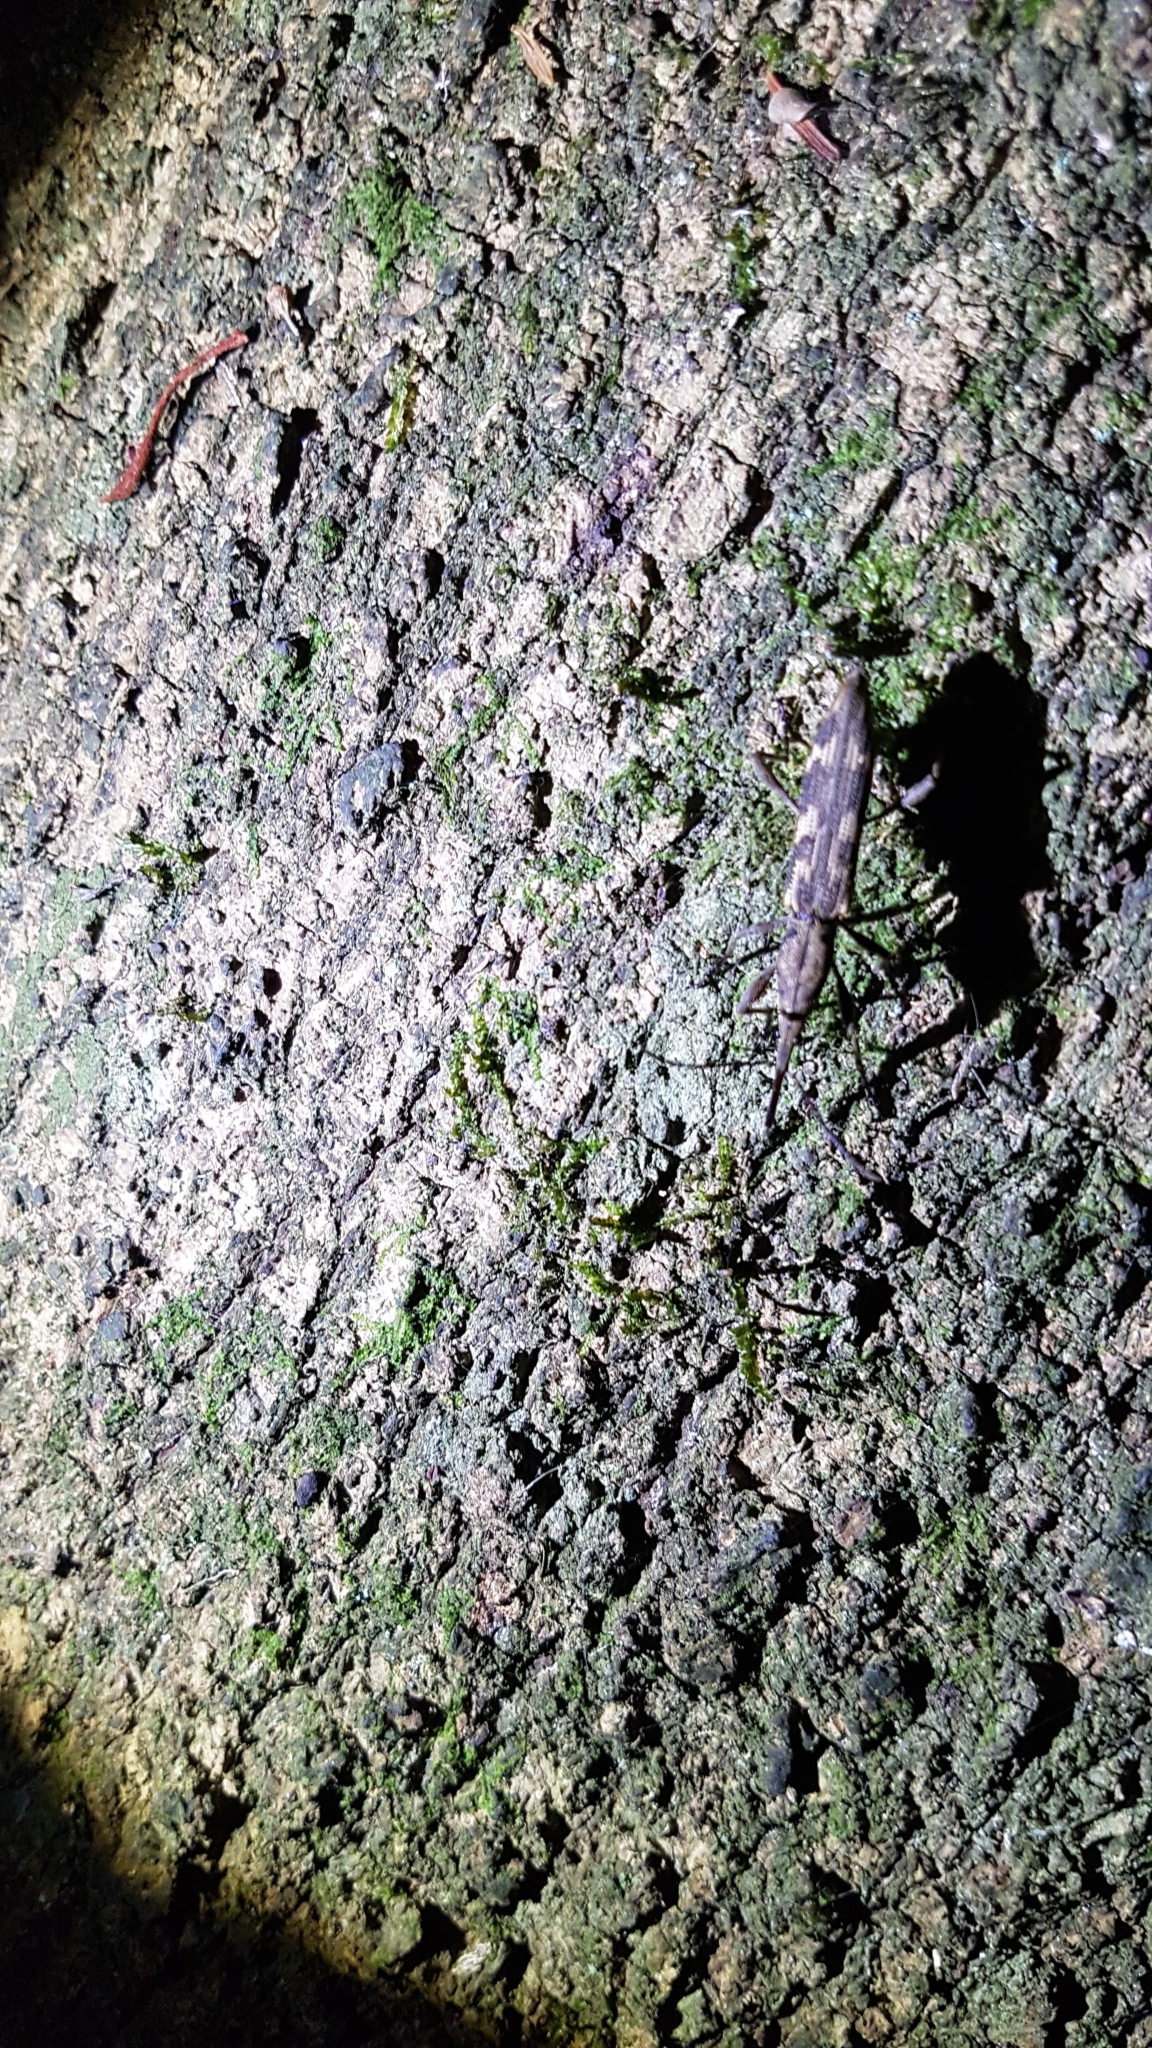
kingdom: Animalia
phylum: Arthropoda
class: Insecta
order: Coleoptera
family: Brentidae
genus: Lasiorhynchus
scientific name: Lasiorhynchus barbicornis
